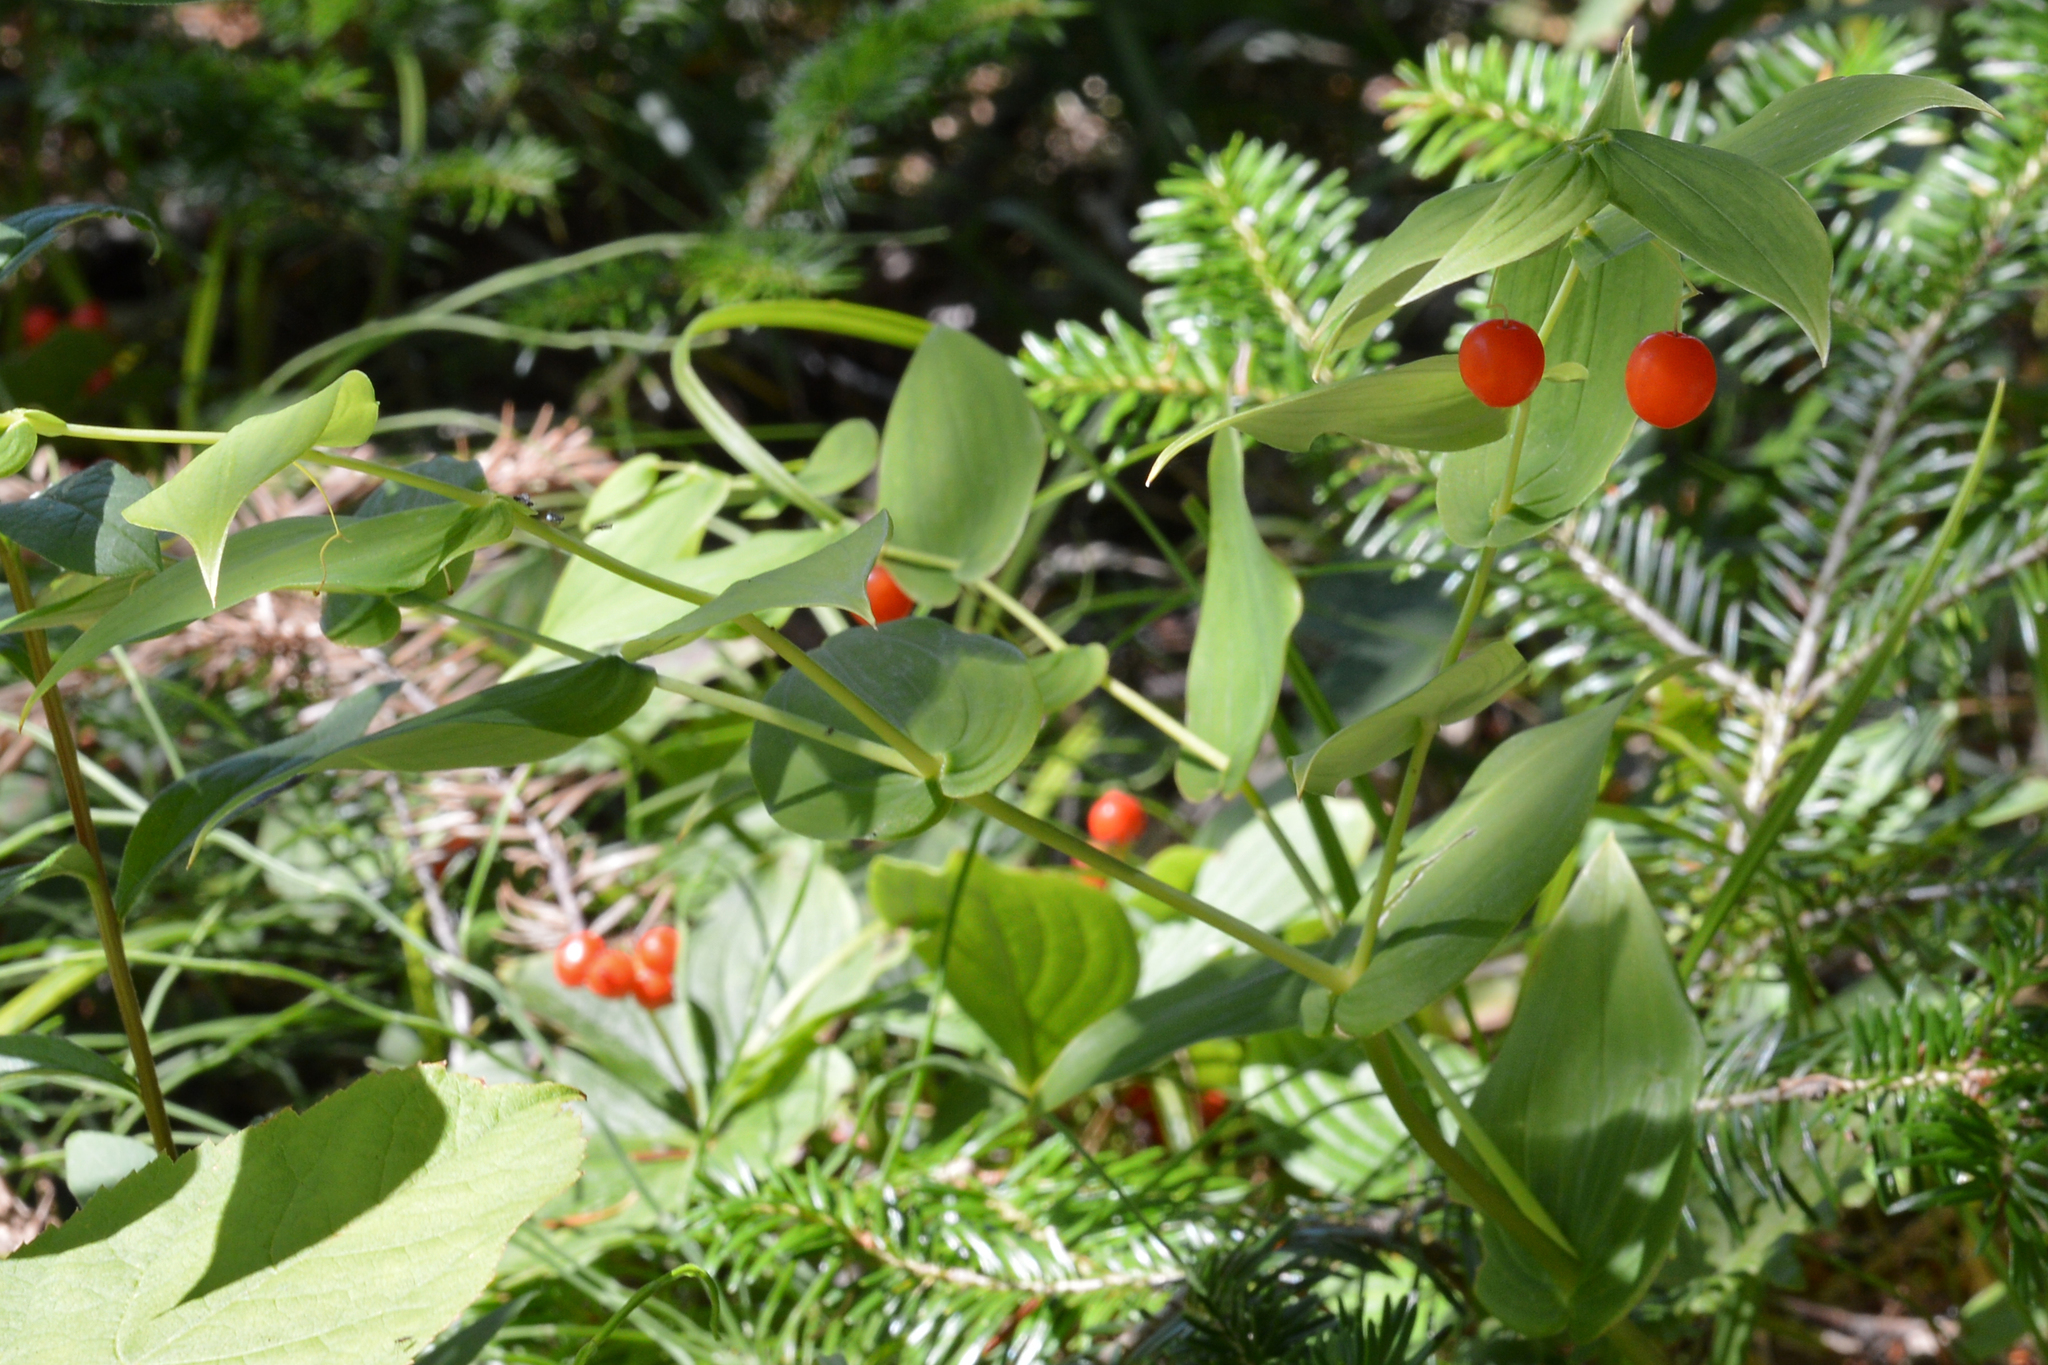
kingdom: Plantae
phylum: Tracheophyta
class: Liliopsida
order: Liliales
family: Liliaceae
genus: Streptopus
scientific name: Streptopus amplexifolius
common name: Clasp twisted stalk
